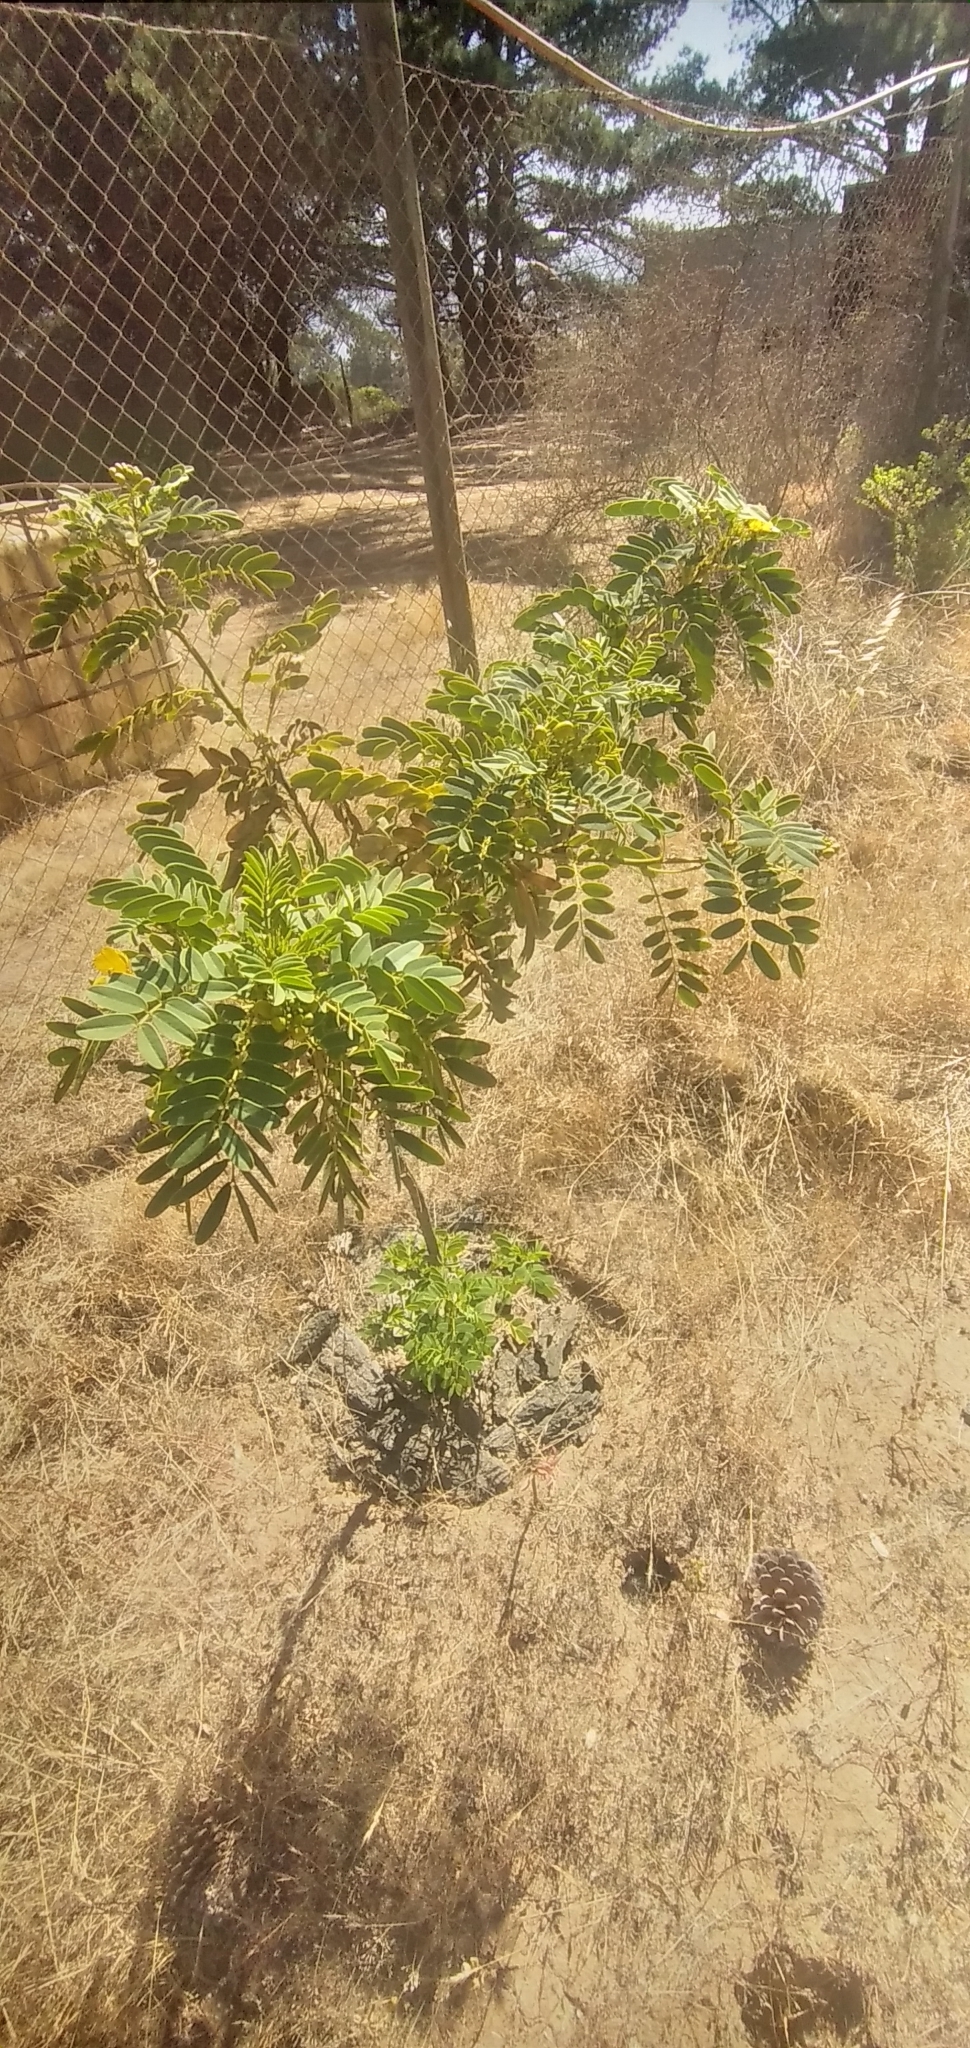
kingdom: Plantae
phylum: Tracheophyta
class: Magnoliopsida
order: Fabales
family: Fabaceae
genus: Senna
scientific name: Senna candolleana
